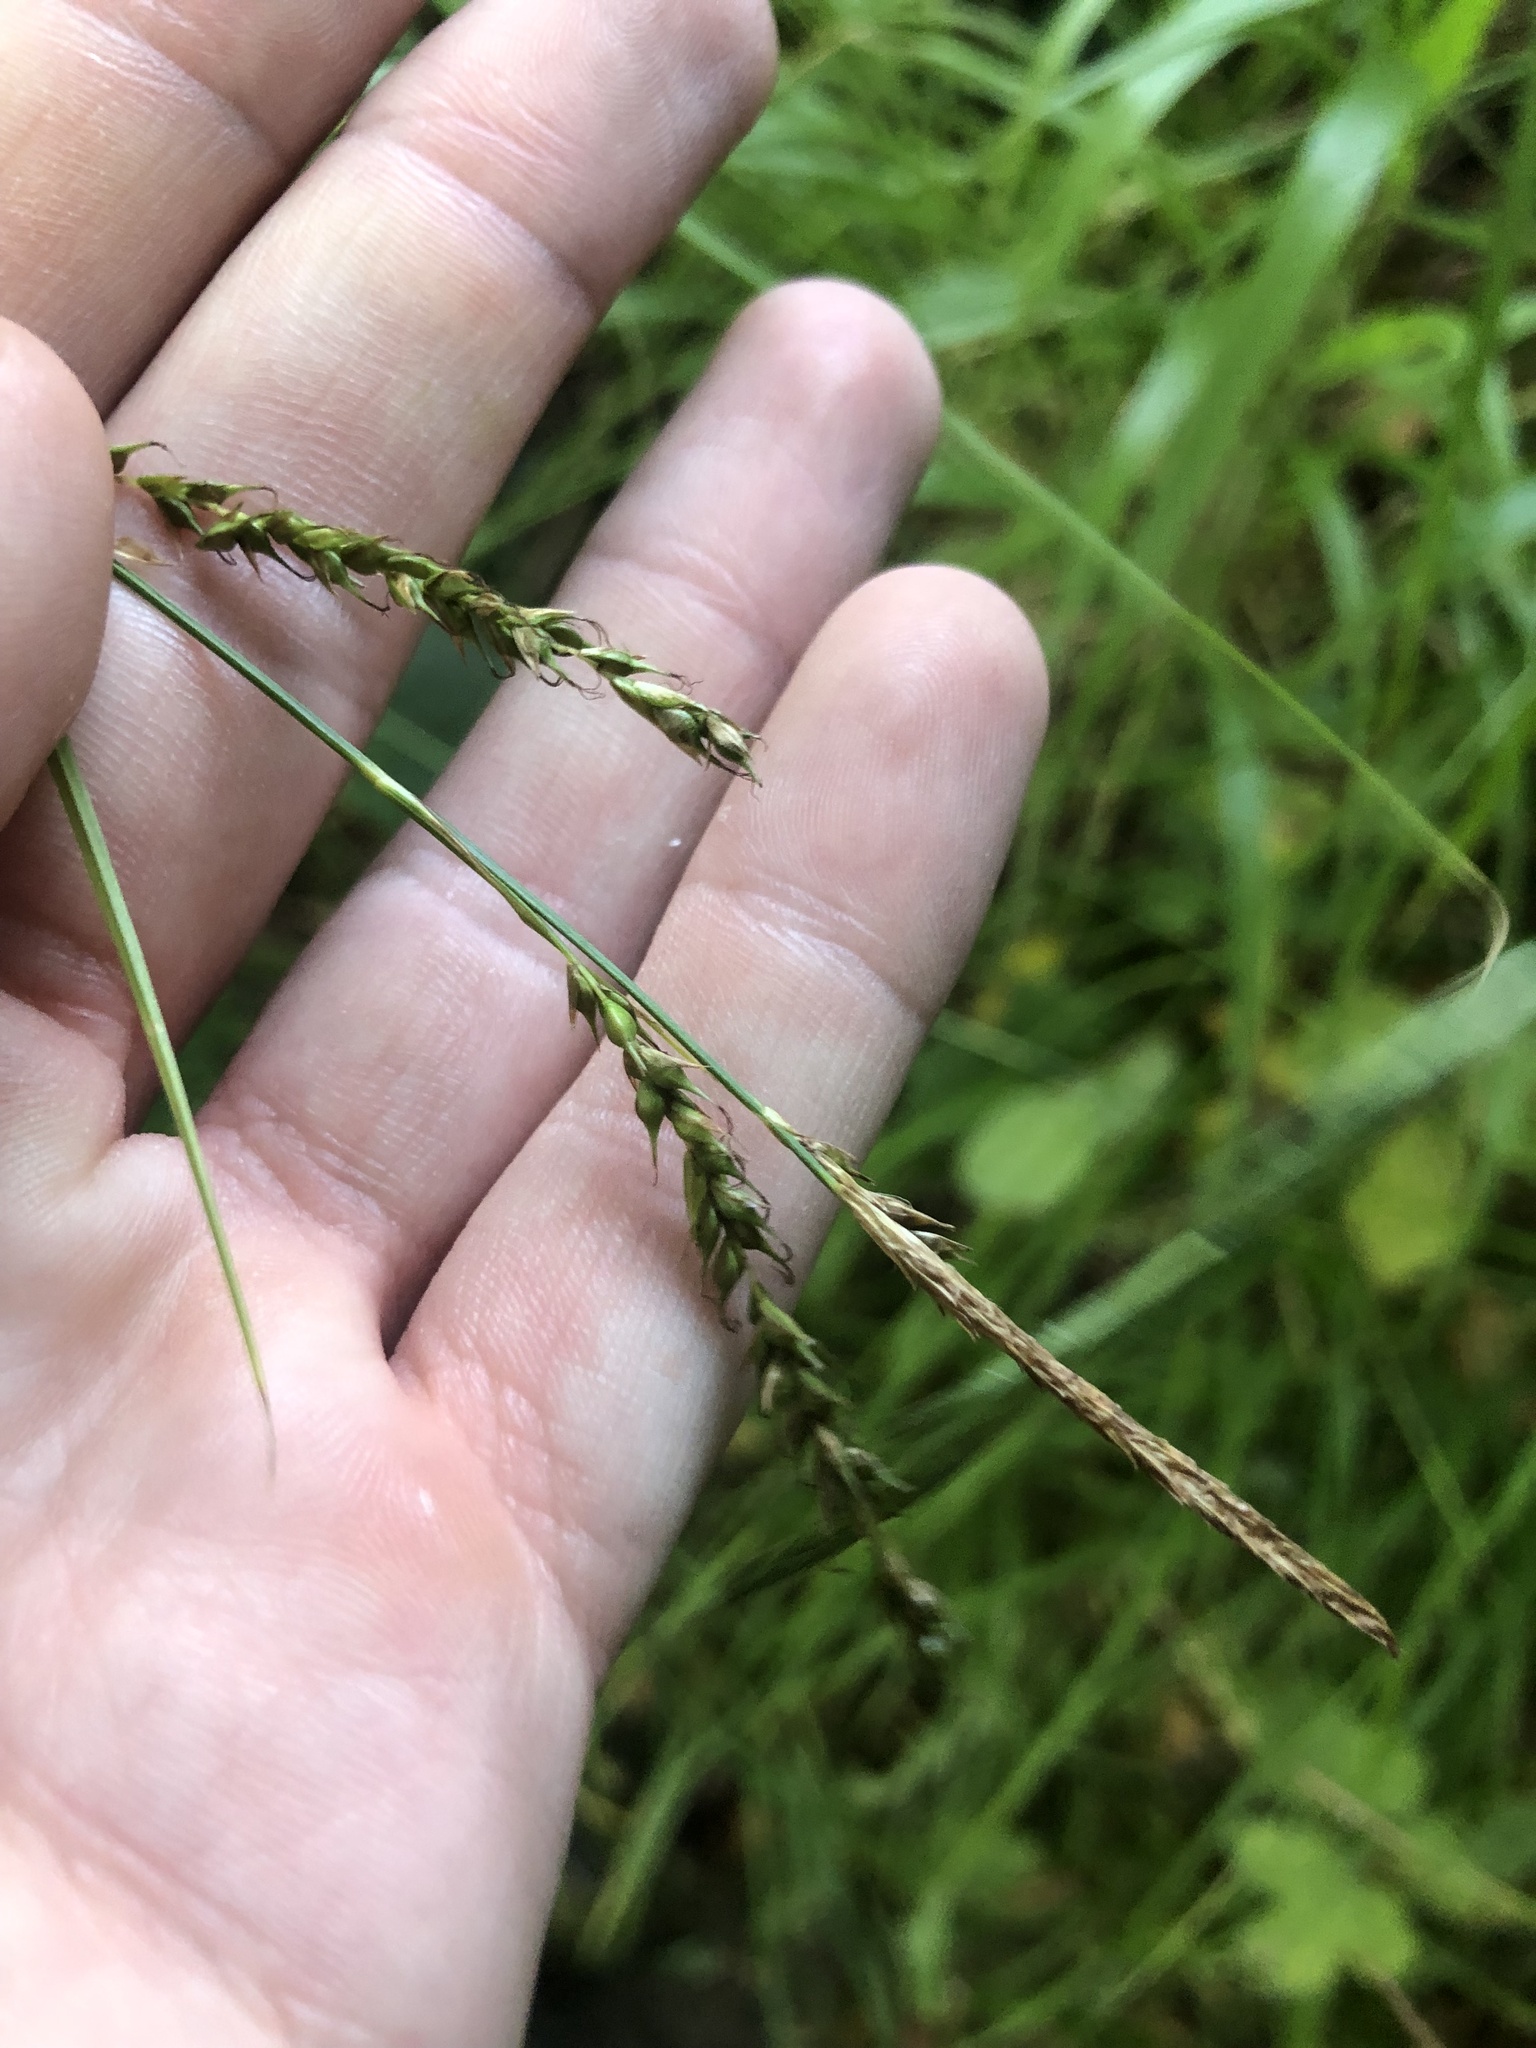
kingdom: Plantae
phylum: Tracheophyta
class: Liliopsida
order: Poales
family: Cyperaceae
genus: Carex
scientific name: Carex sylvatica
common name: Wood-sedge
